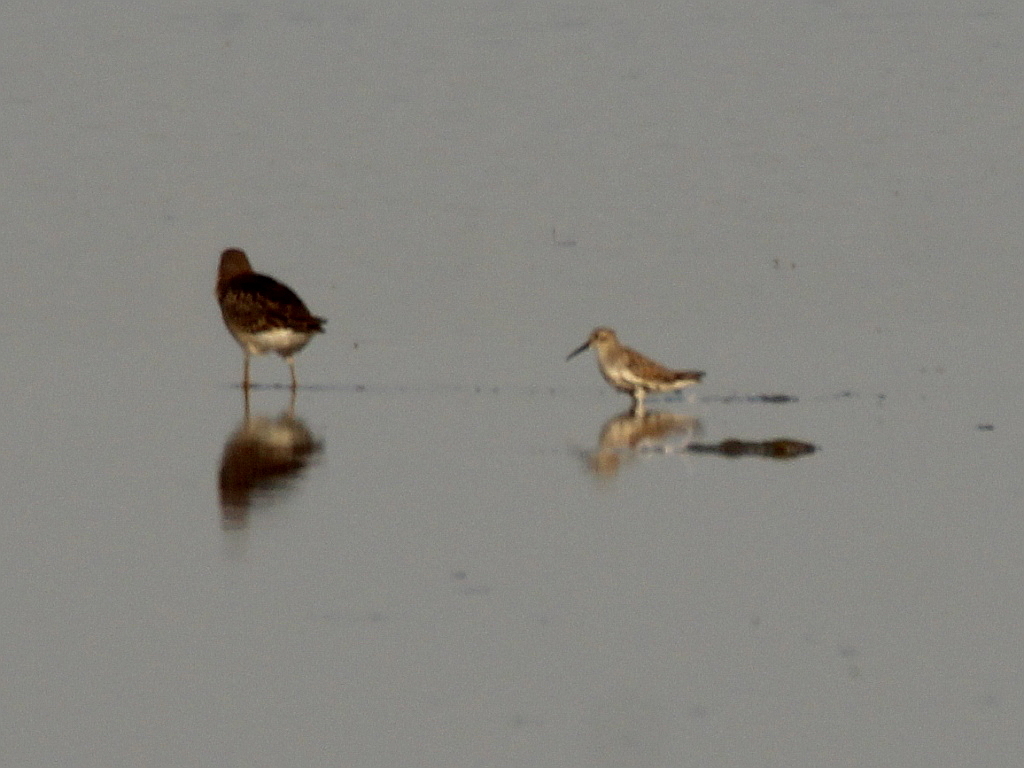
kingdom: Animalia
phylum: Chordata
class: Aves
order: Charadriiformes
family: Scolopacidae
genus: Calidris
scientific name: Calidris alpina
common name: Dunlin
